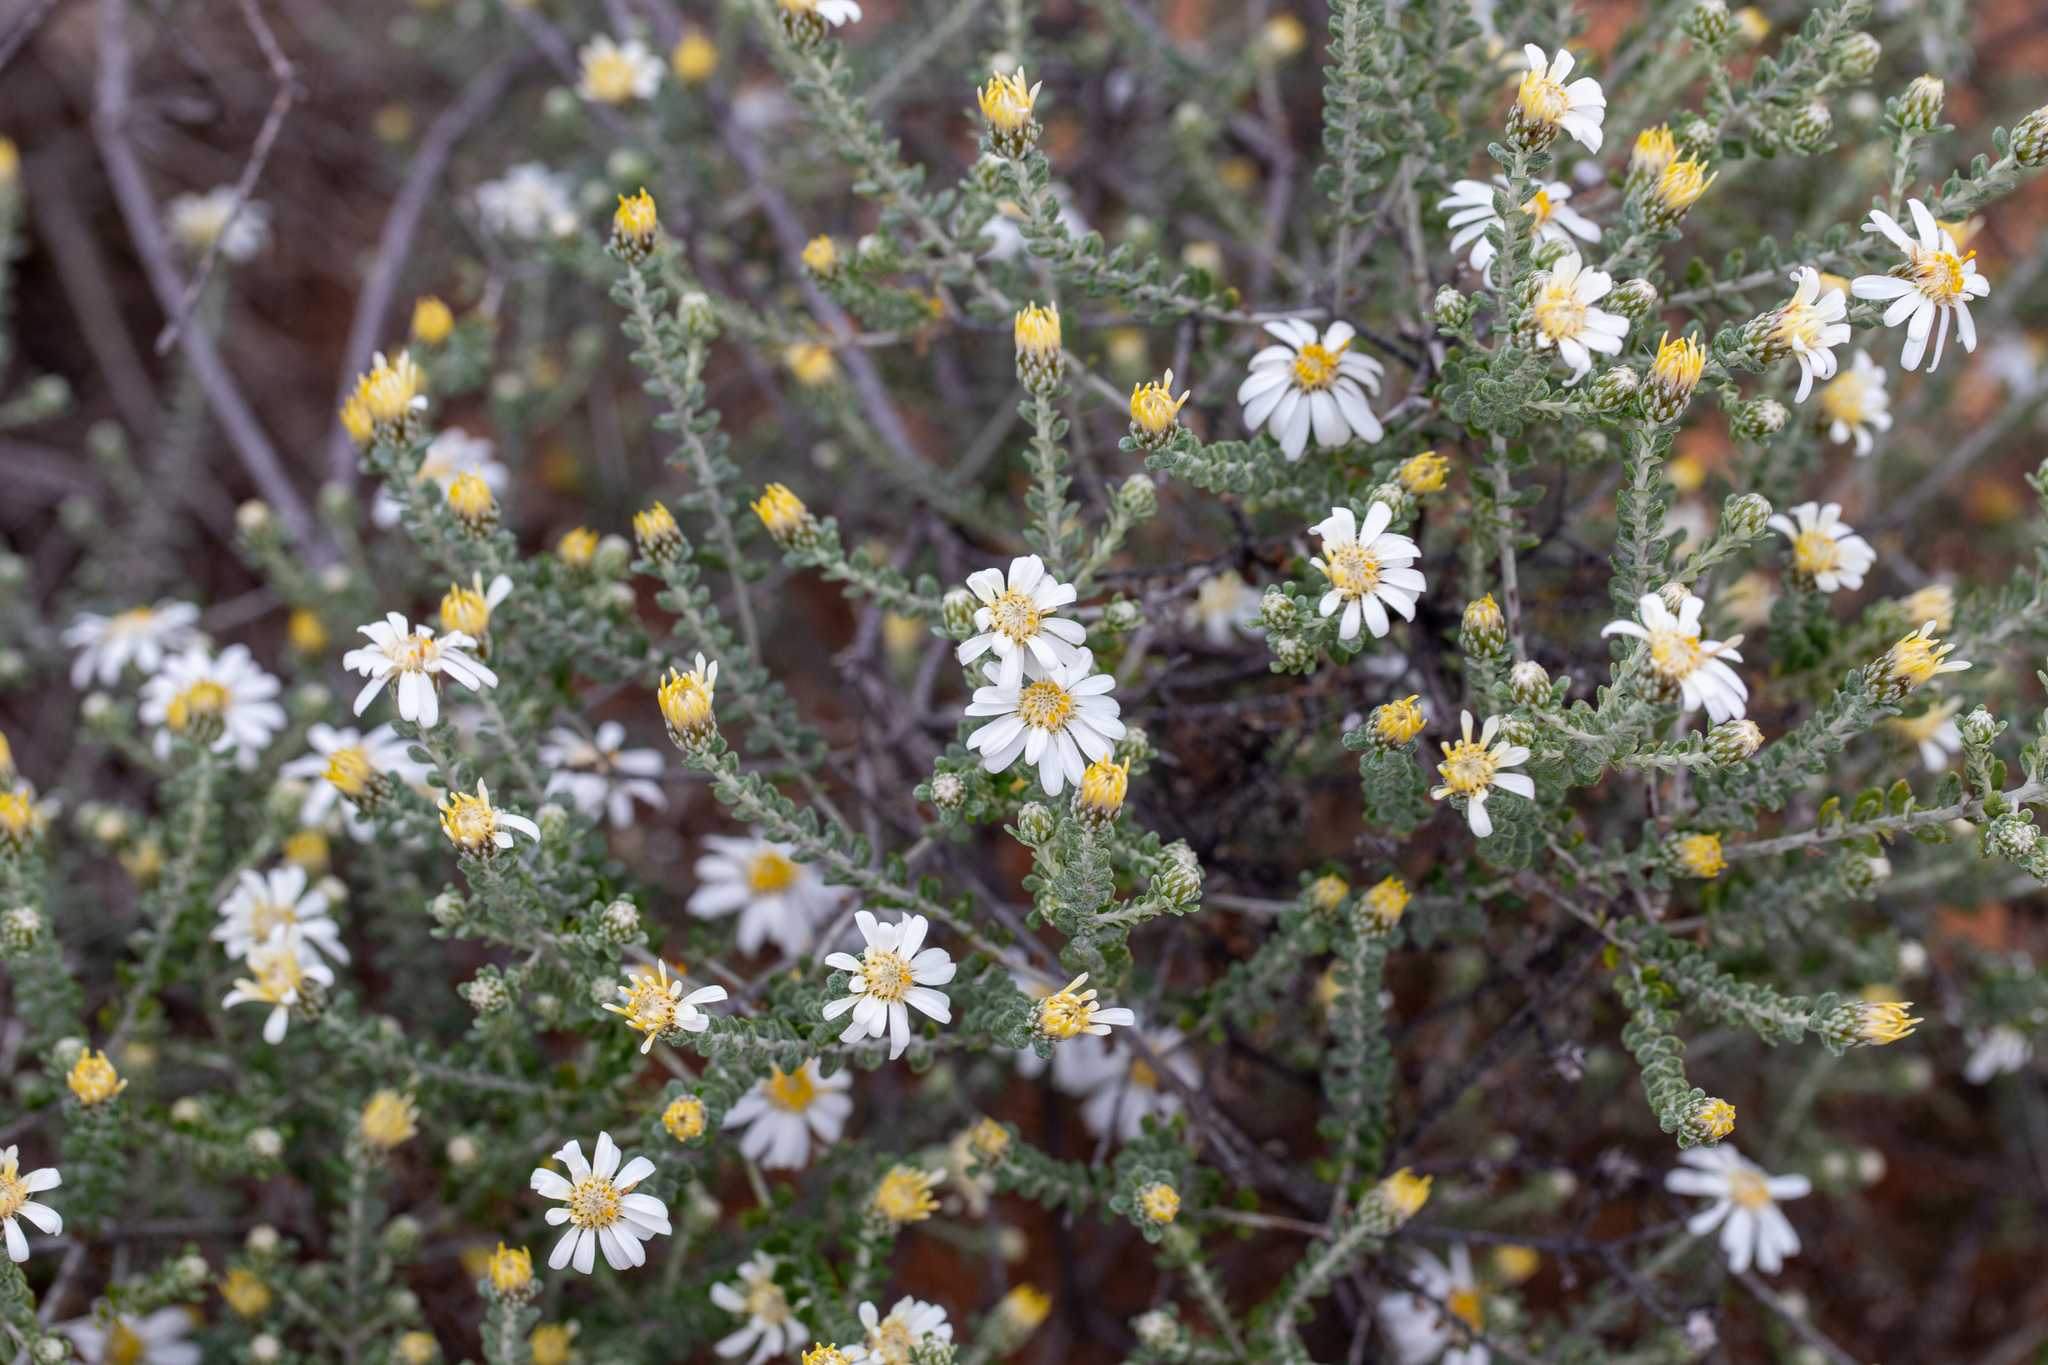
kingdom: Plantae
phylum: Tracheophyta
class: Magnoliopsida
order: Asterales
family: Asteraceae
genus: Olearia
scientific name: Olearia pimeleoides
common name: Showy daisybush
